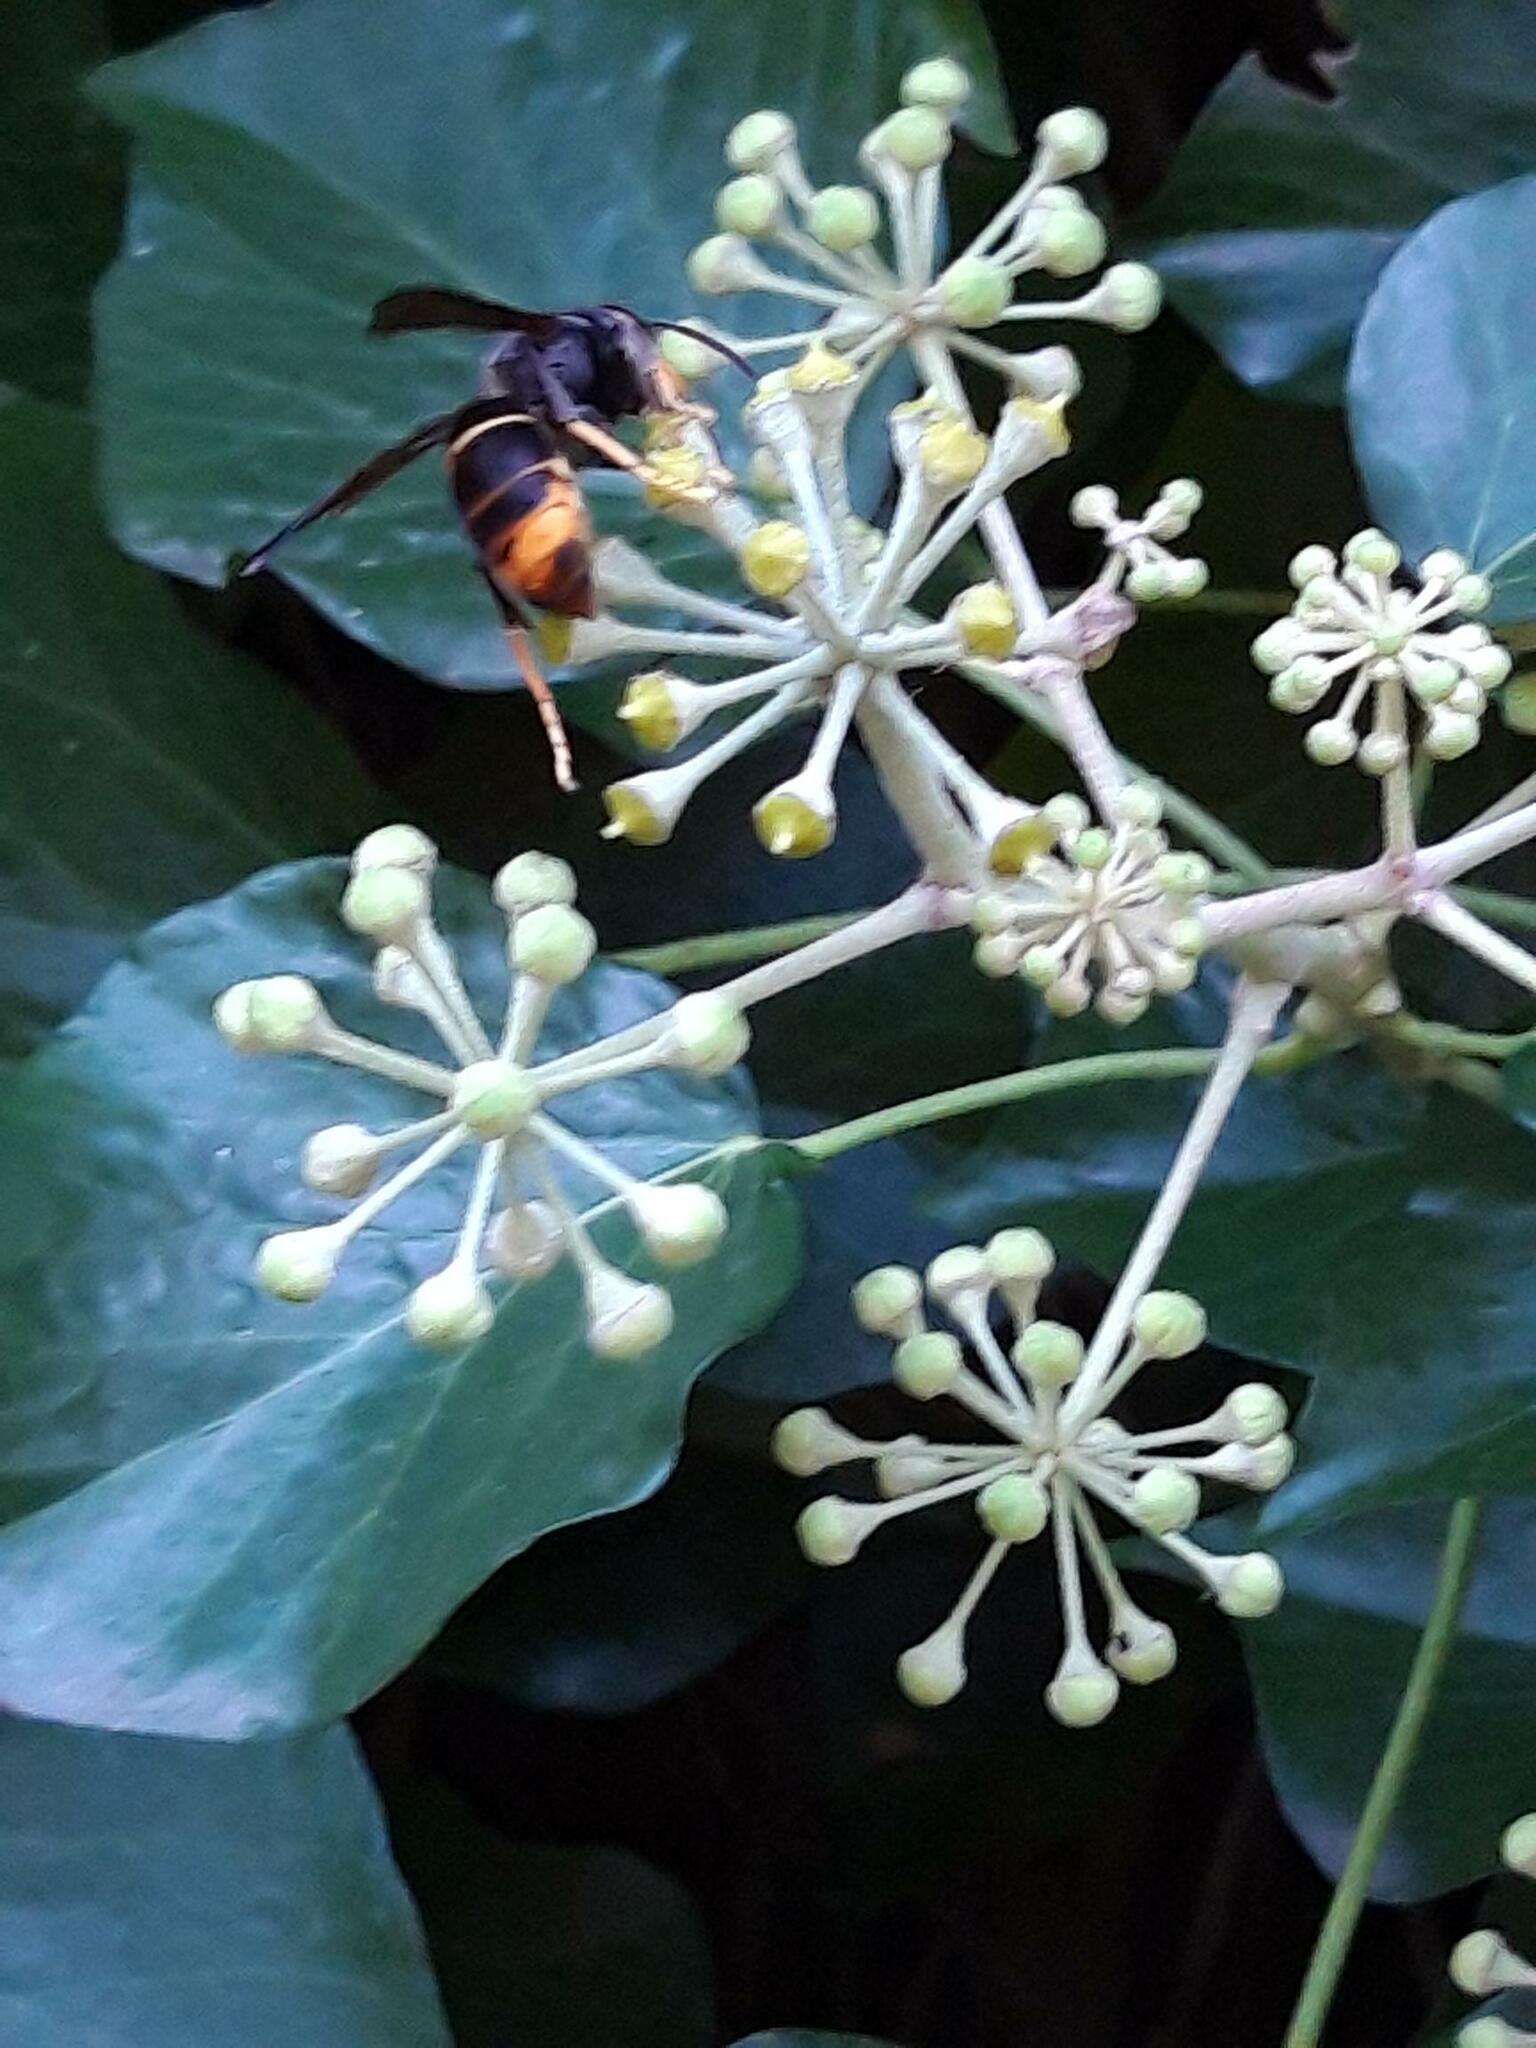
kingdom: Animalia
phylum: Arthropoda
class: Insecta
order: Hymenoptera
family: Vespidae
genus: Vespa
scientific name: Vespa velutina
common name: Asian hornet
